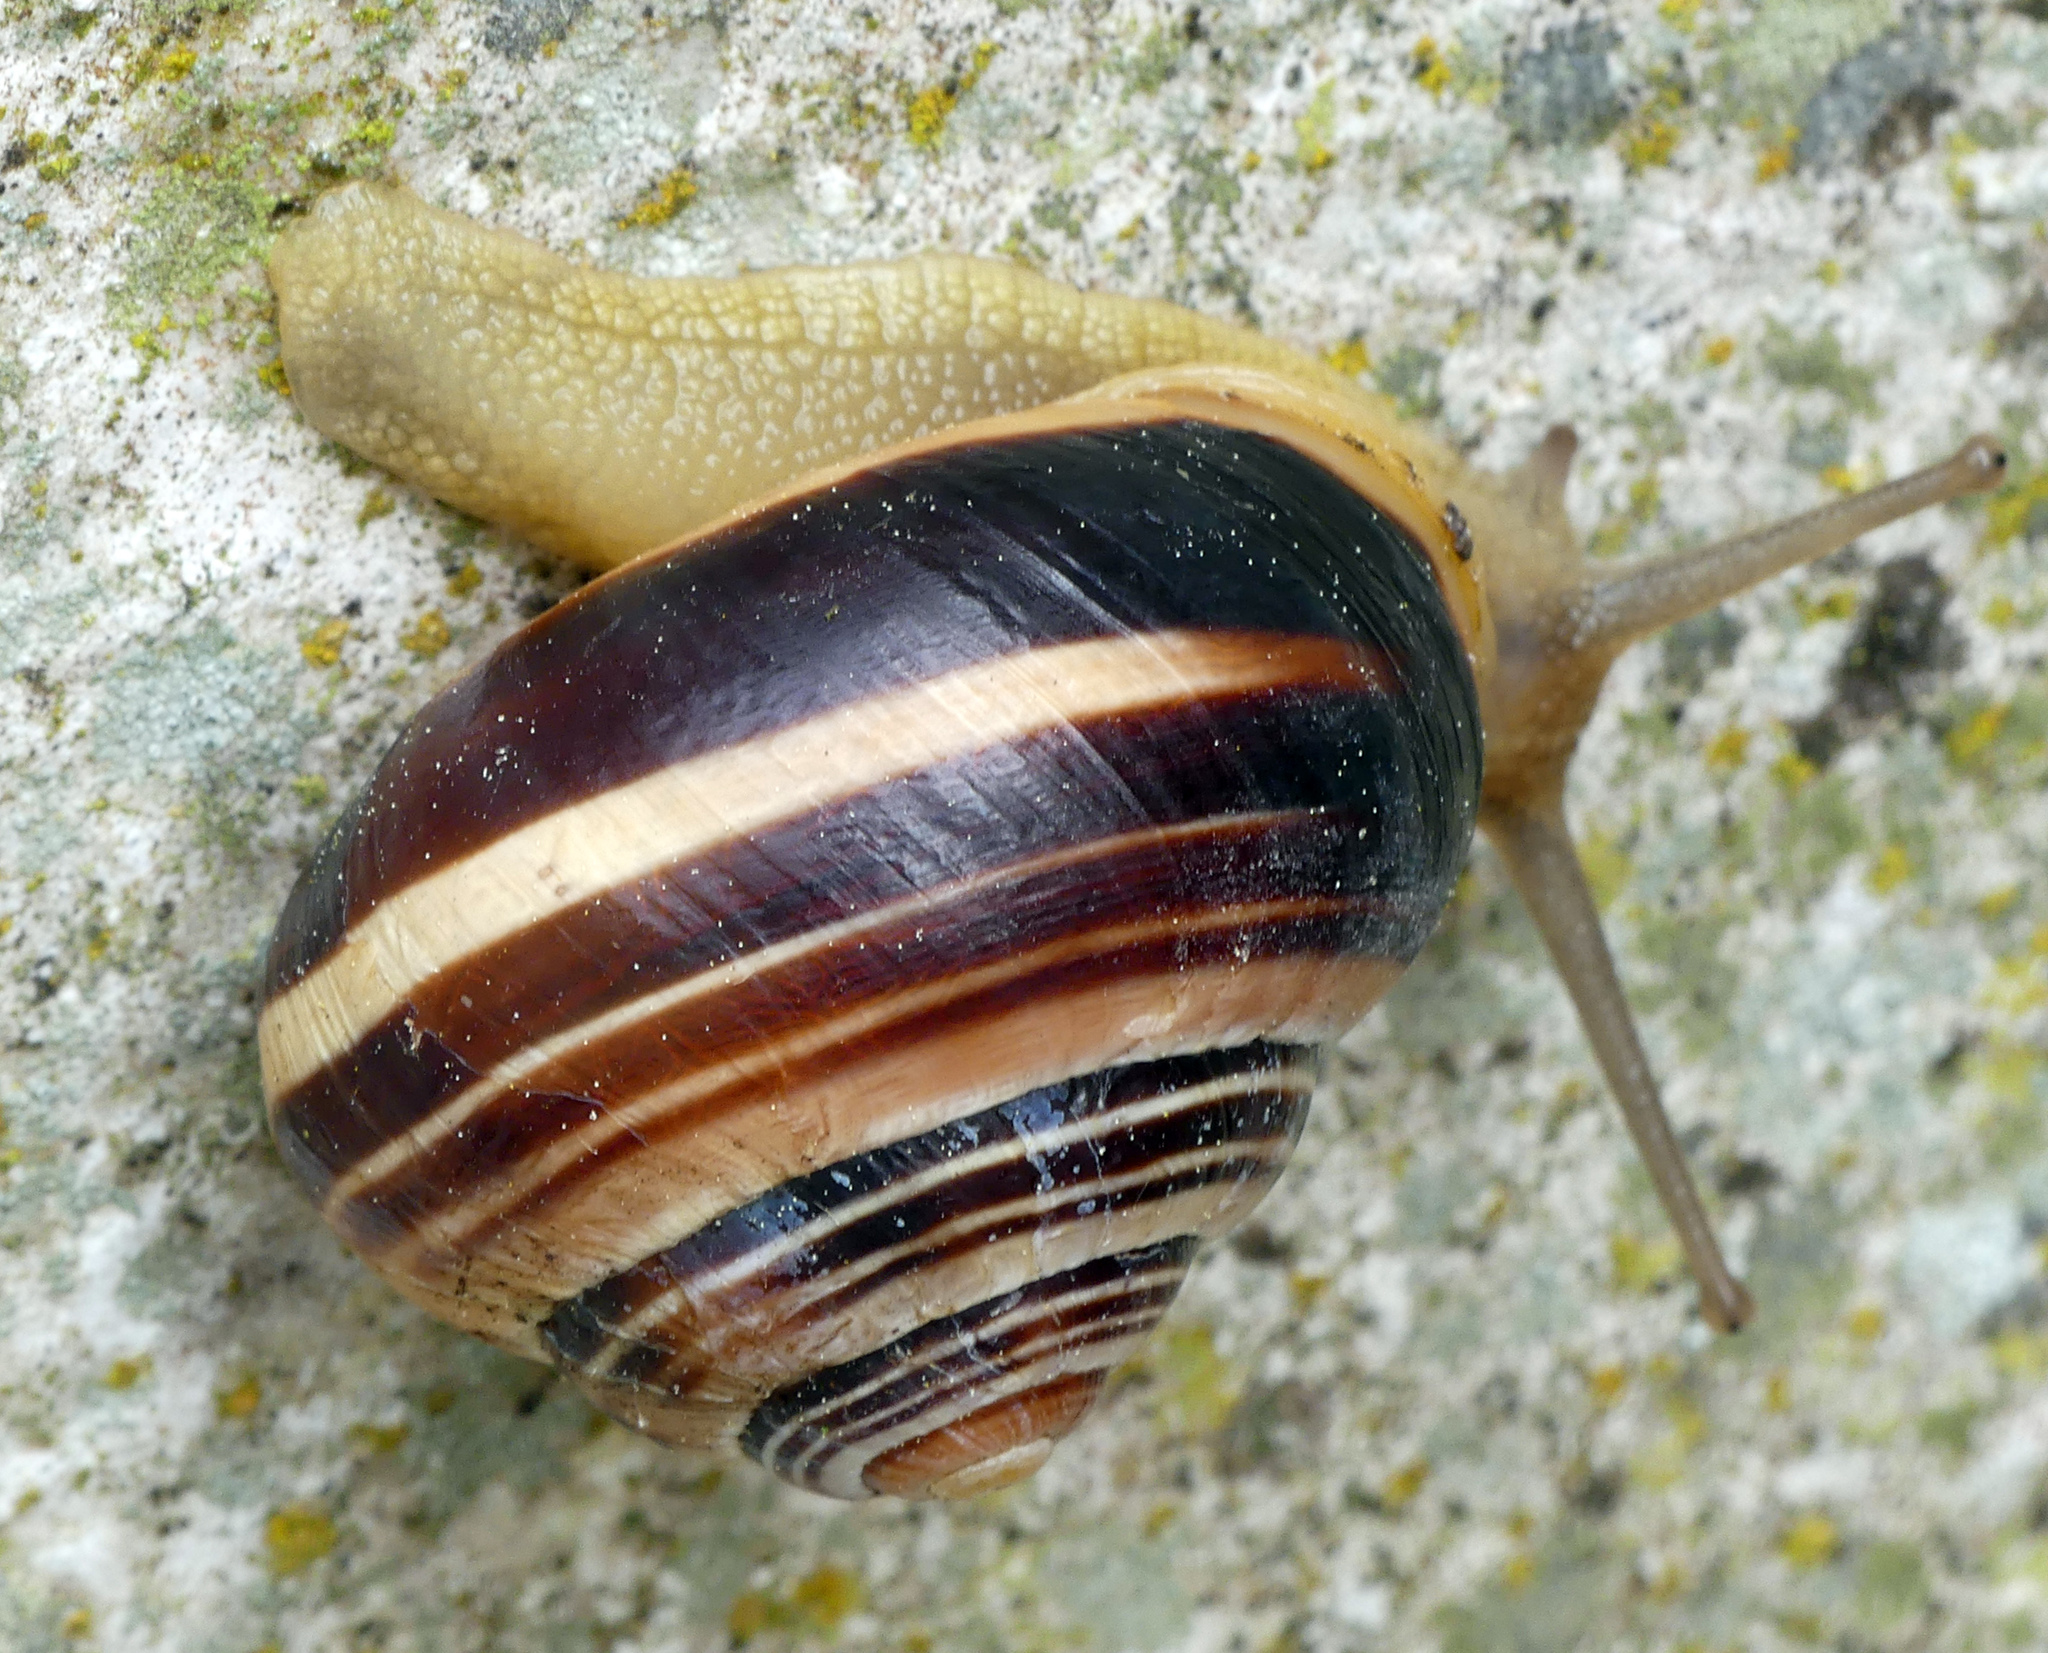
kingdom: Animalia
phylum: Mollusca
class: Gastropoda
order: Stylommatophora
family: Helicidae
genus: Cepaea
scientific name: Cepaea hortensis
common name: White-lip gardensnail
